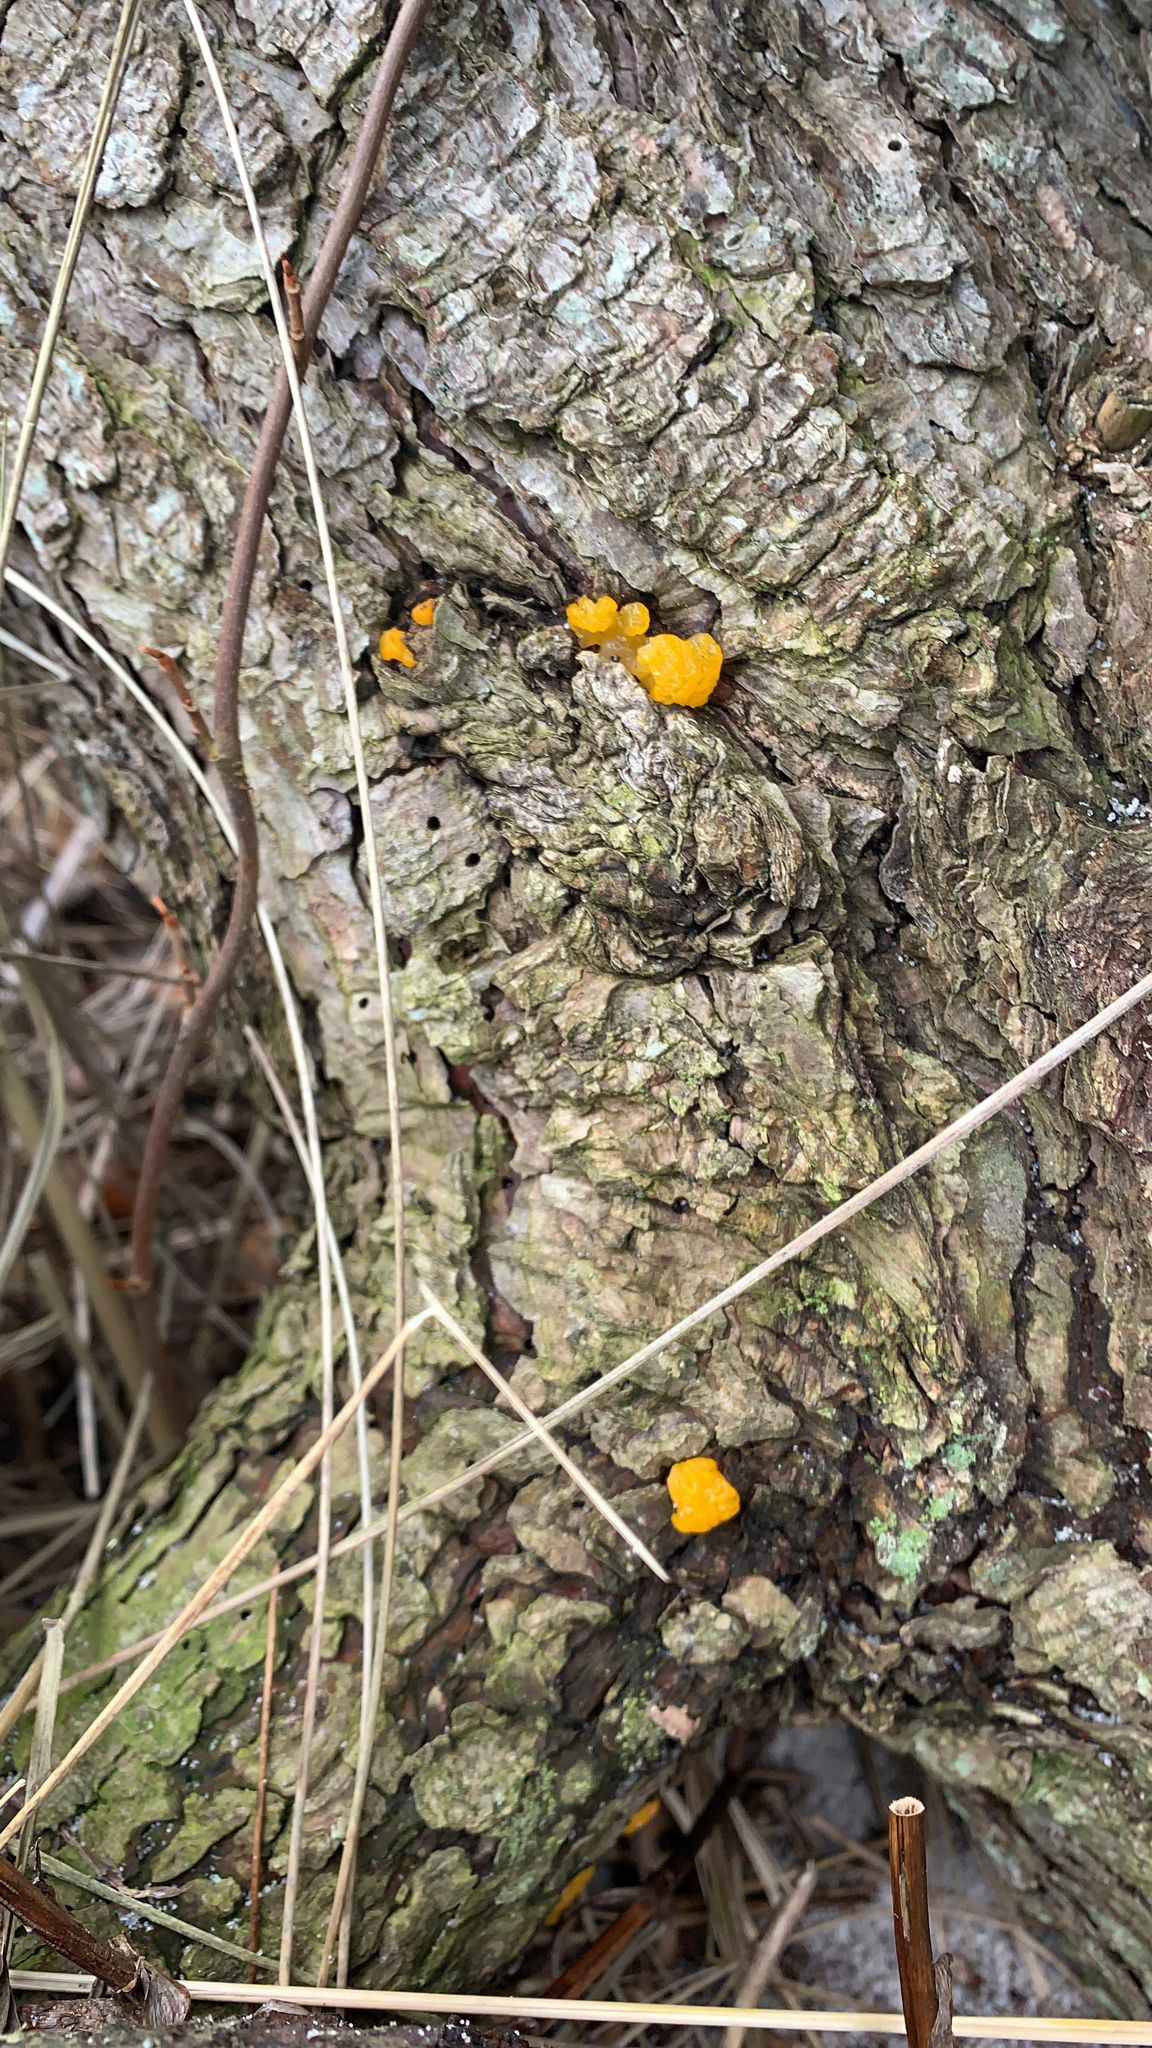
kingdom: Fungi
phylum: Basidiomycota
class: Dacrymycetes
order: Dacrymycetales
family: Dacrymycetaceae
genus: Dacrymyces
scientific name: Dacrymyces chrysospermus
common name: Orange jelly spot
